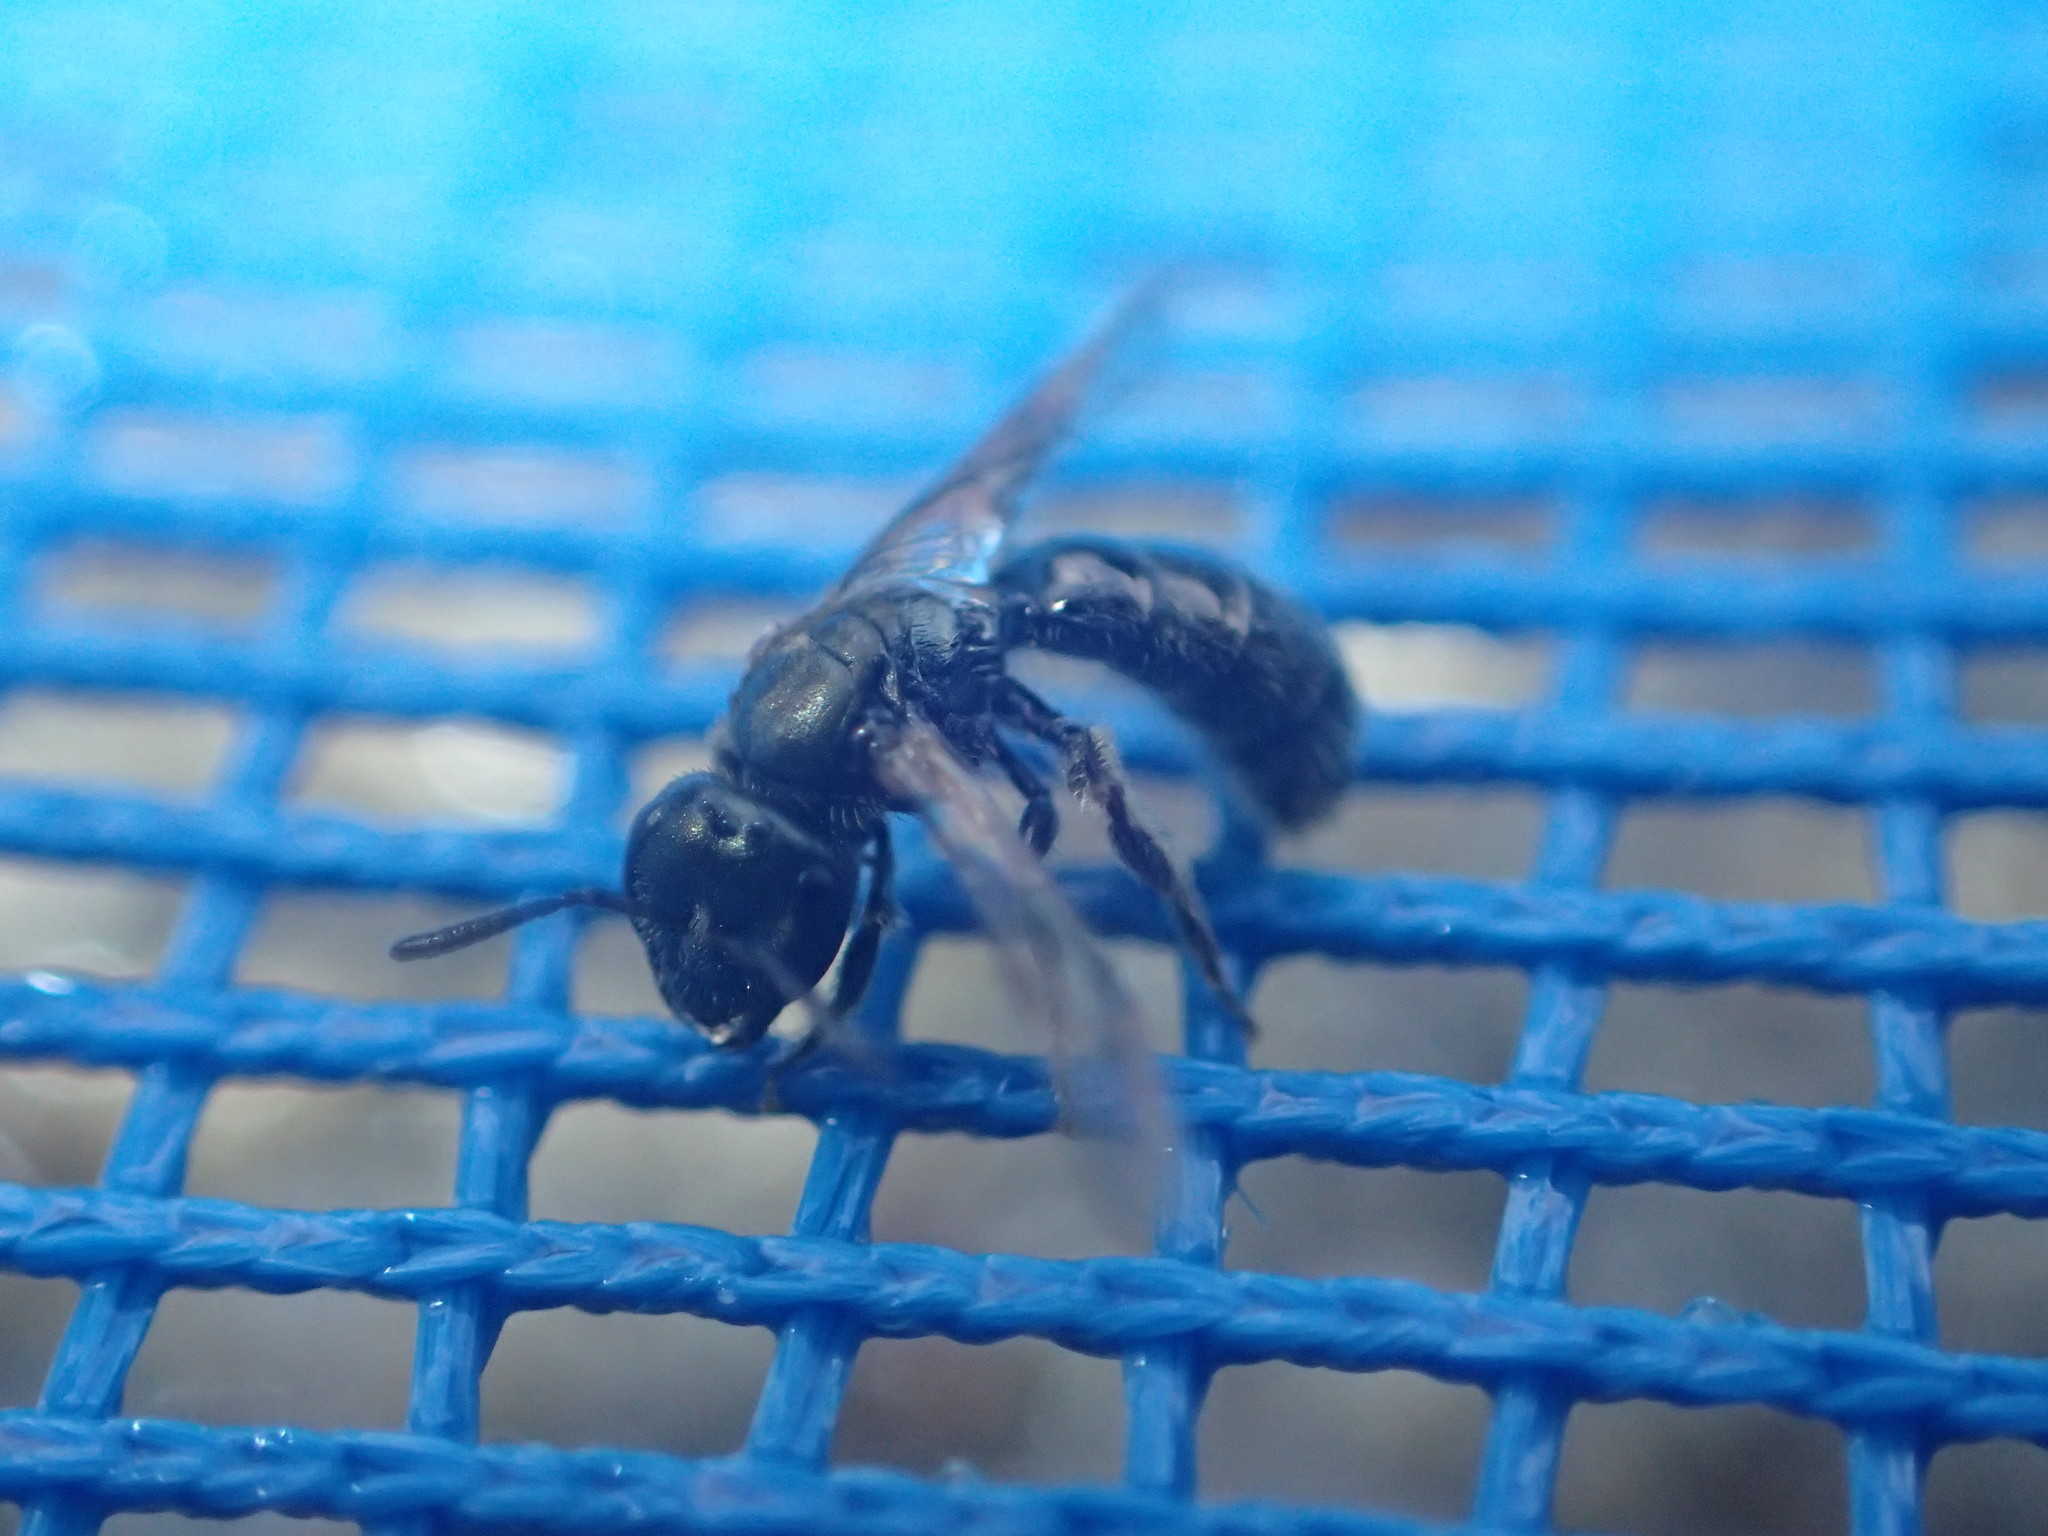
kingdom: Animalia
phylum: Arthropoda
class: Insecta
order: Hymenoptera
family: Halictidae
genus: Dialictus
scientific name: Dialictus
